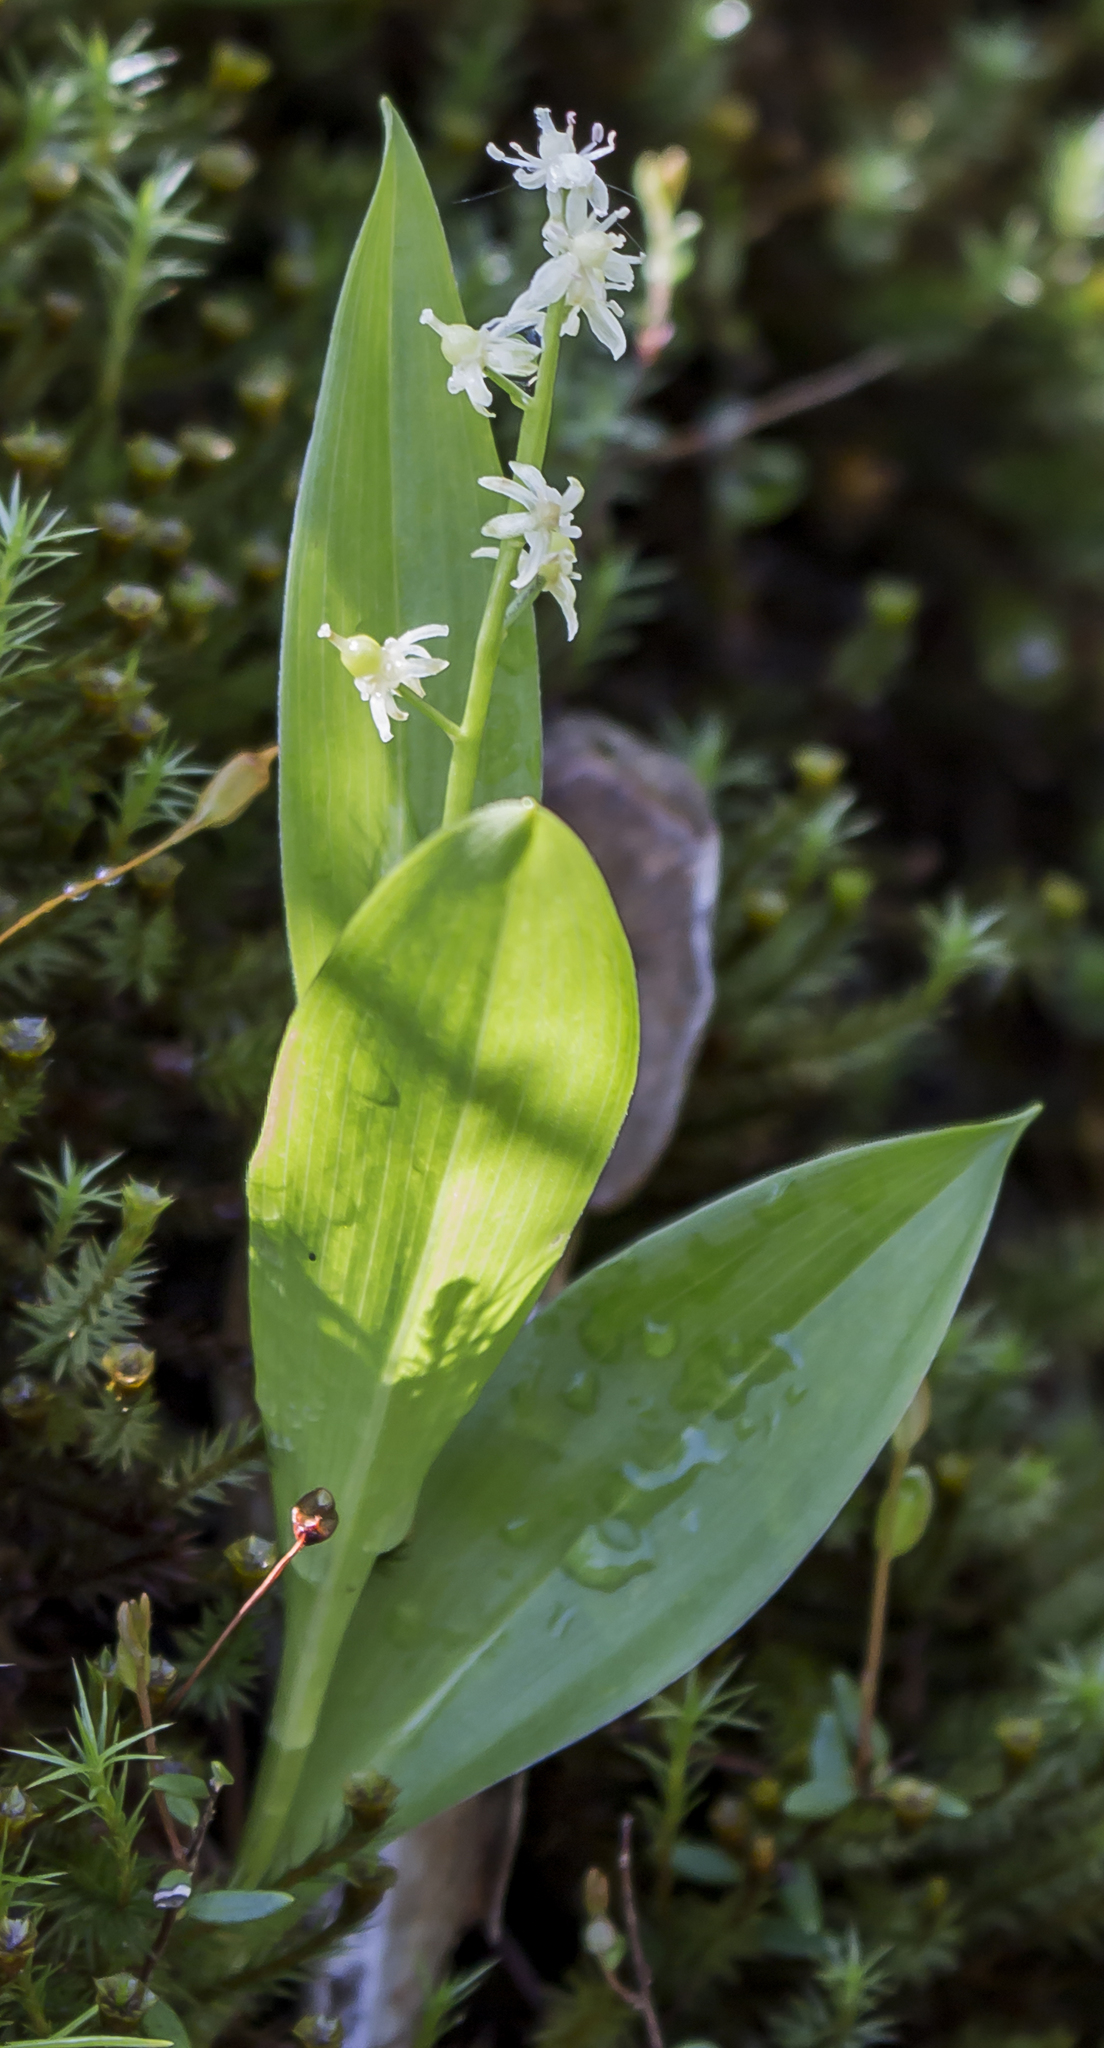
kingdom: Plantae
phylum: Tracheophyta
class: Liliopsida
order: Asparagales
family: Asparagaceae
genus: Maianthemum
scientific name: Maianthemum trifolium
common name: Swamp false solomon's seal
